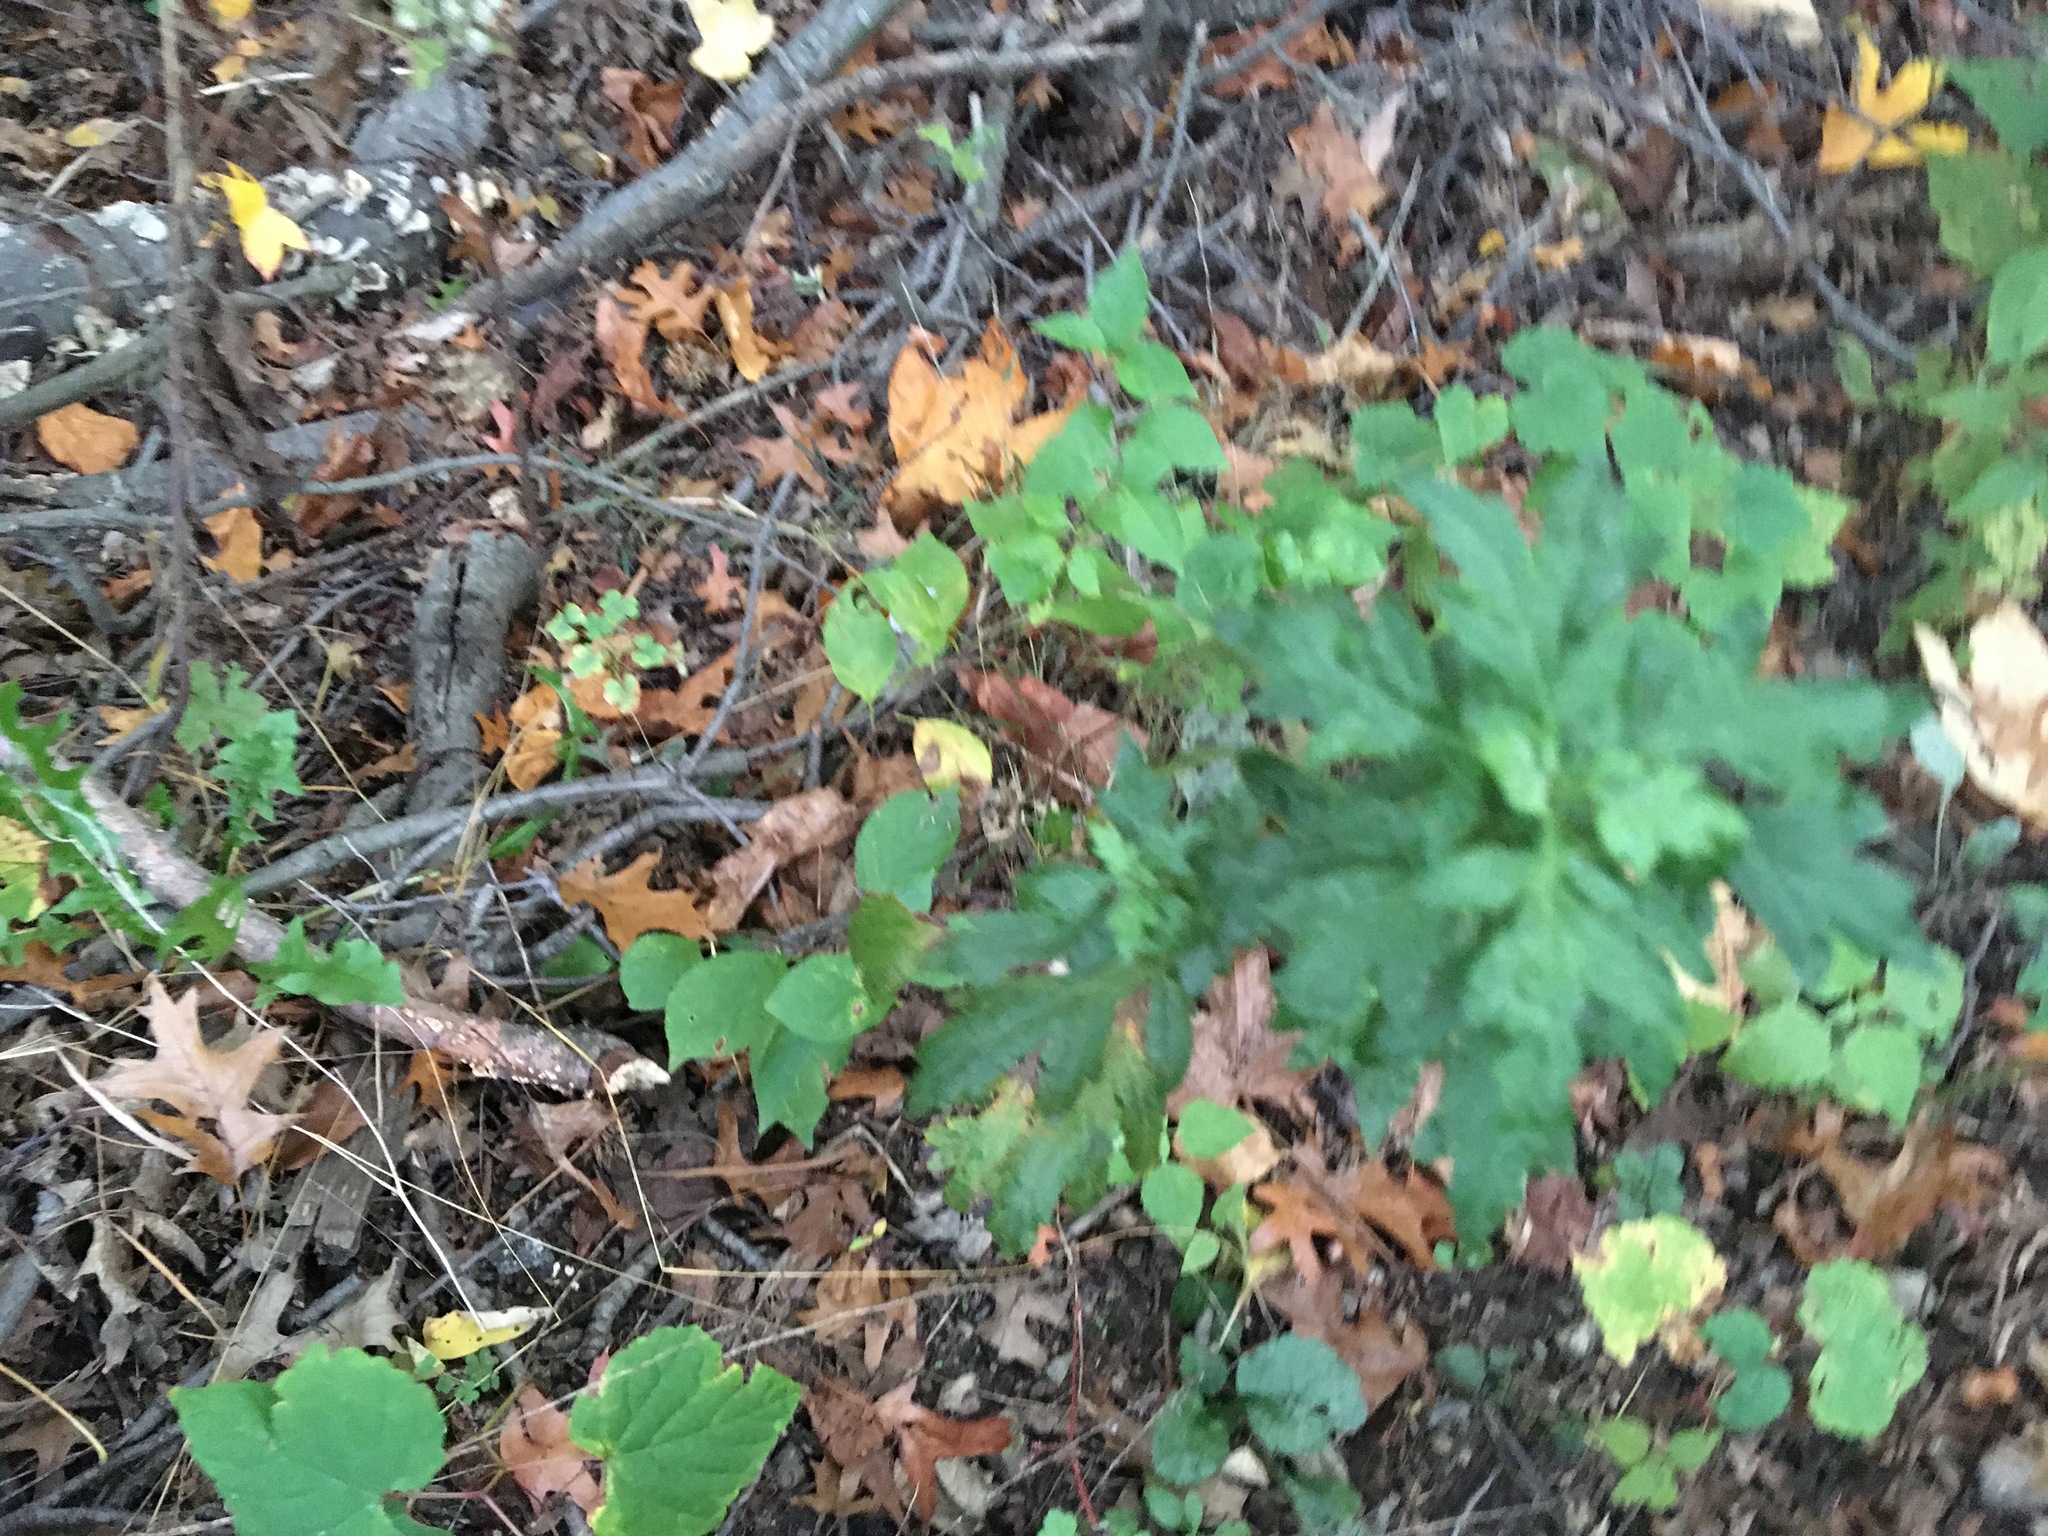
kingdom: Plantae
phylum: Tracheophyta
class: Magnoliopsida
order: Asterales
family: Asteraceae
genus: Artemisia
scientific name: Artemisia vulgaris
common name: Mugwort
